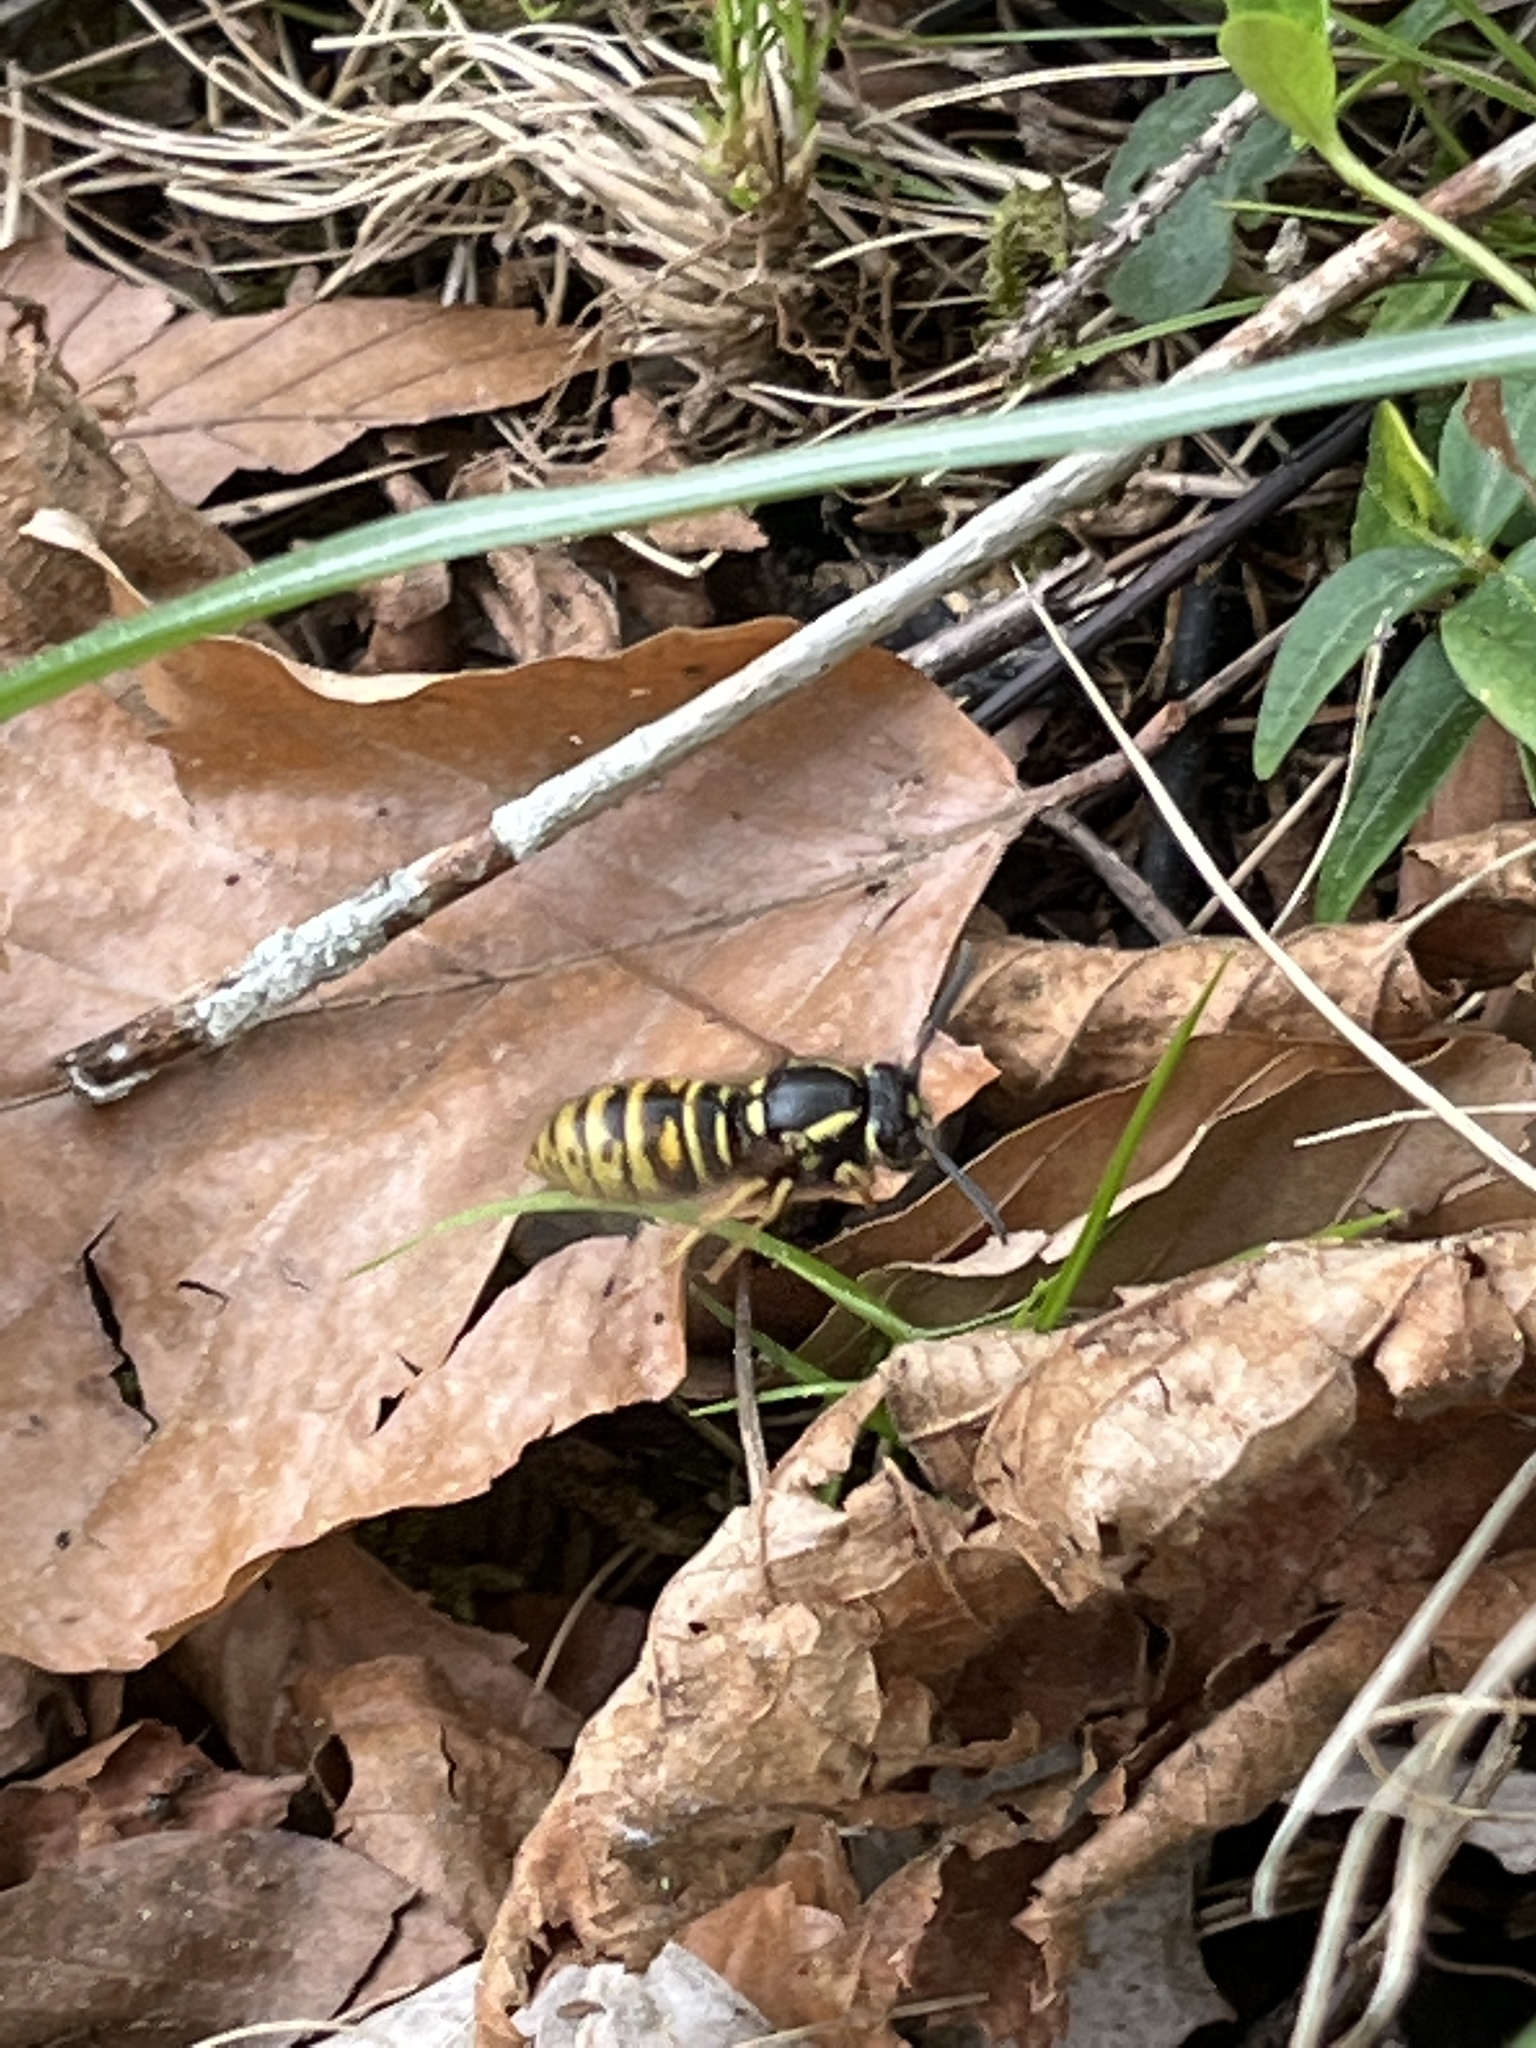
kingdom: Animalia
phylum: Arthropoda
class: Insecta
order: Hymenoptera
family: Vespidae
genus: Vespula
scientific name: Vespula rufa
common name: Red wasp
